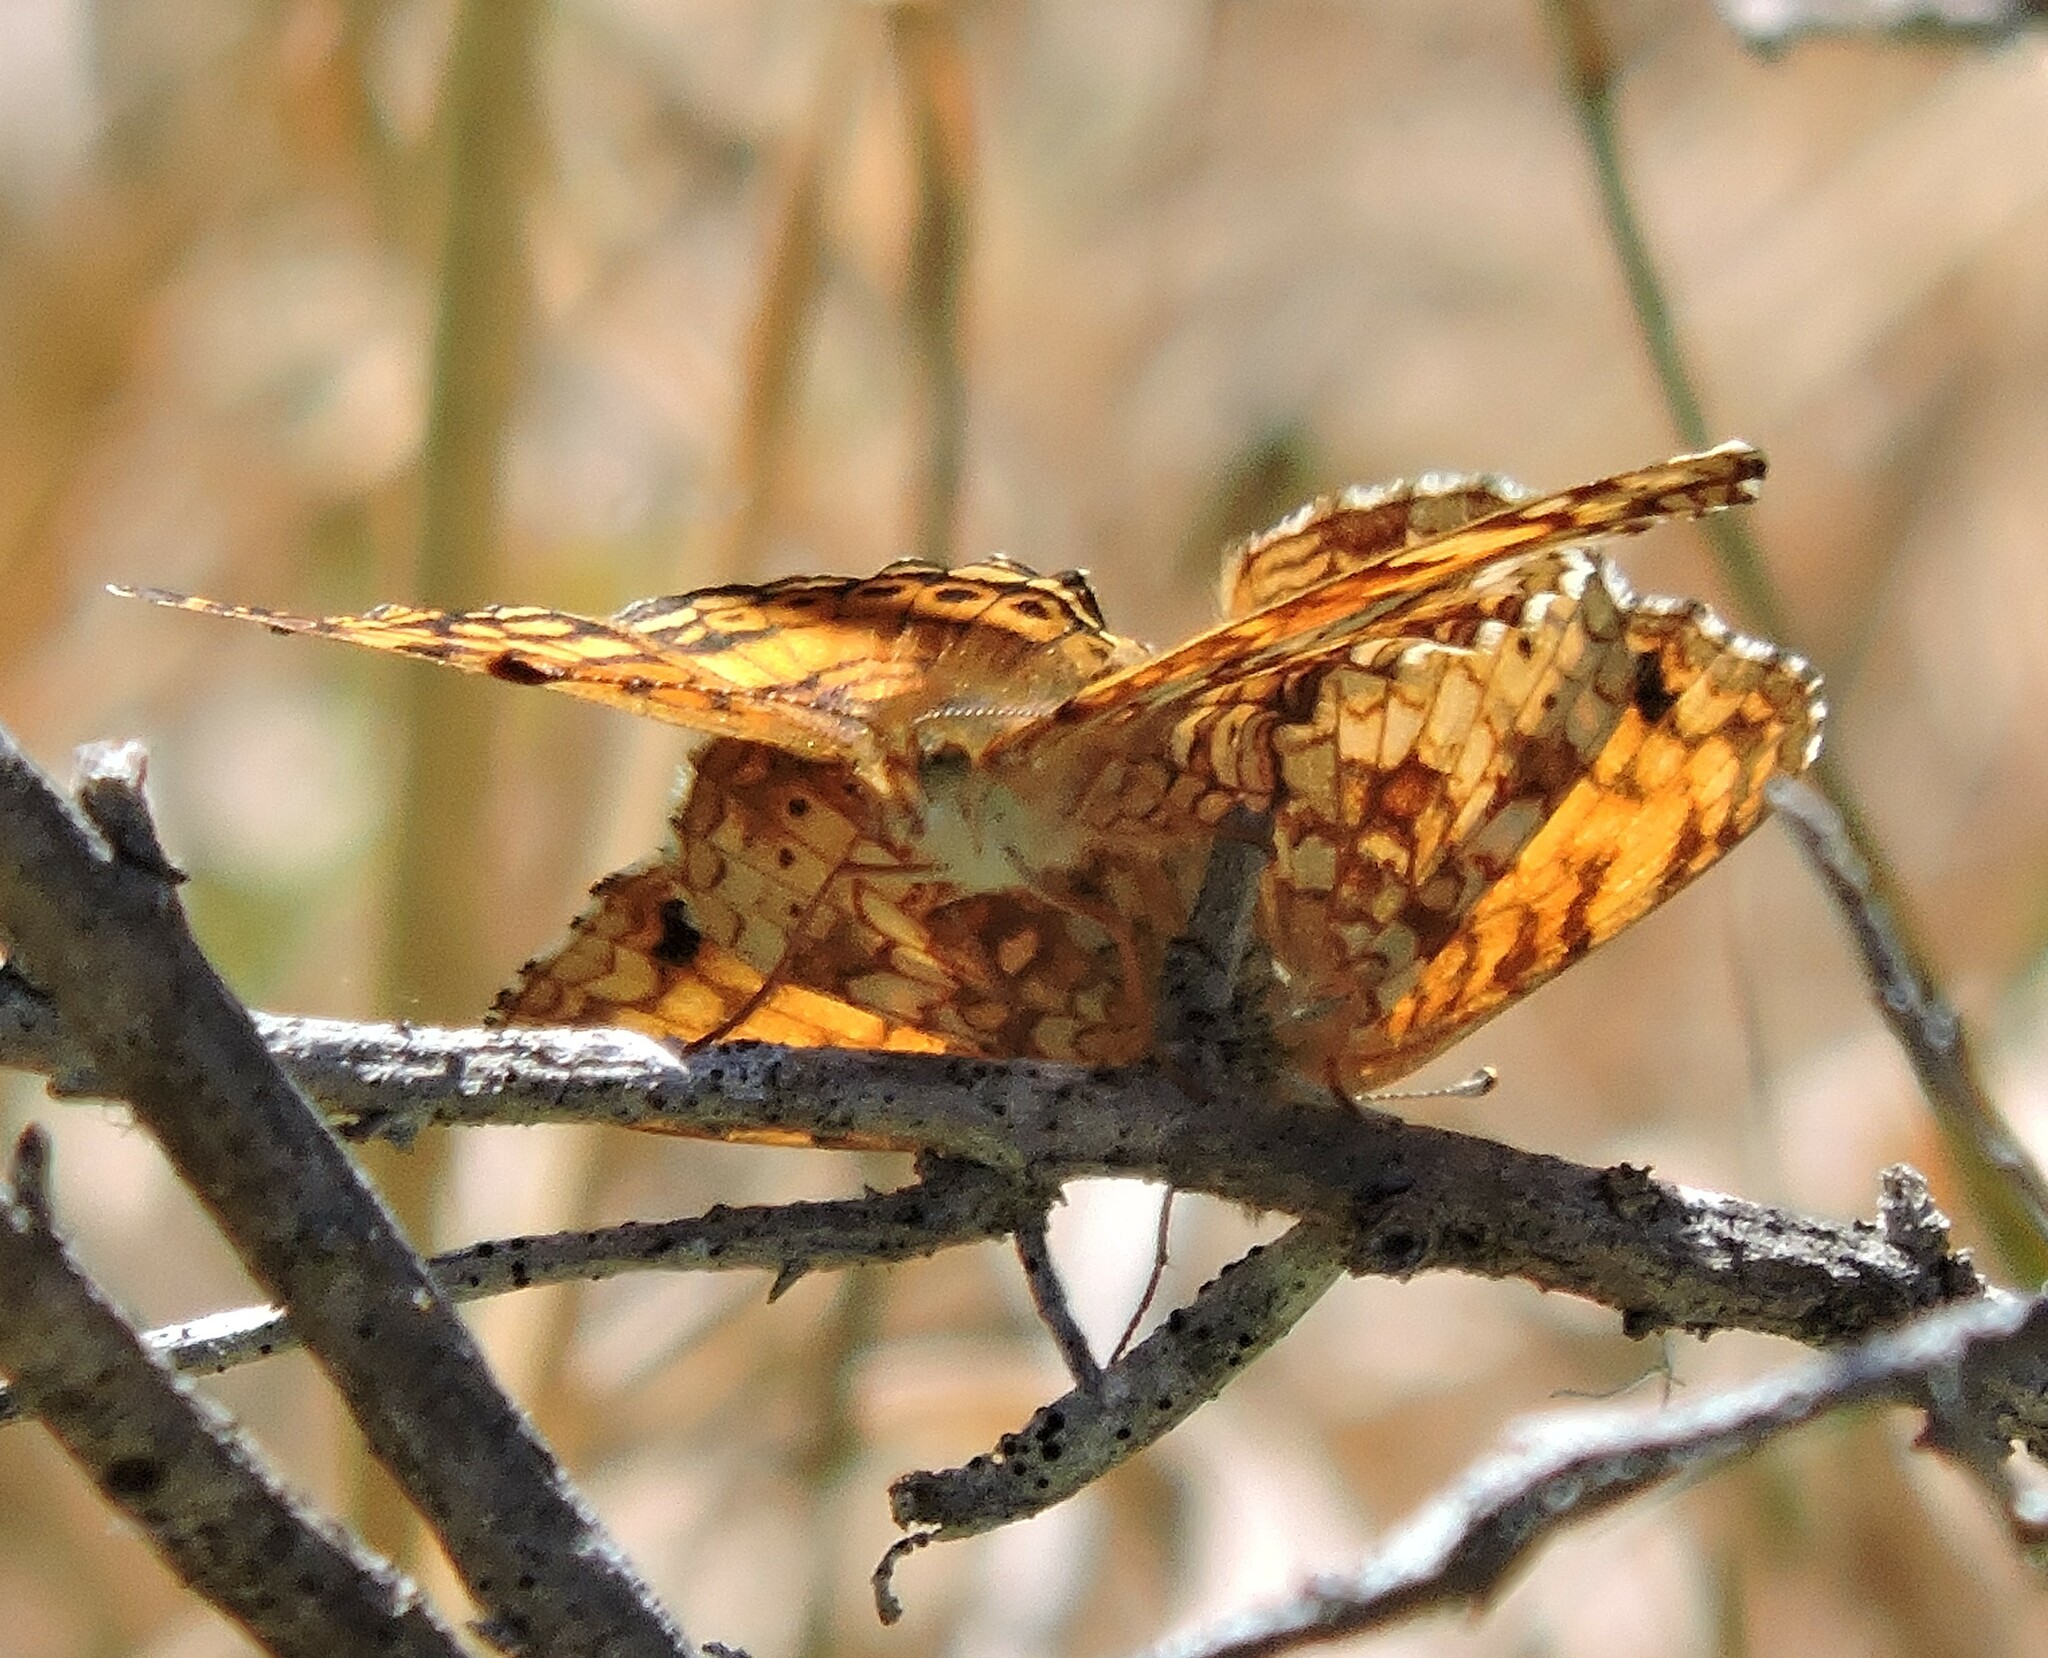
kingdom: Animalia
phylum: Arthropoda
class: Insecta
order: Lepidoptera
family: Nymphalidae
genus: Eresia
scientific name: Eresia aveyrona
